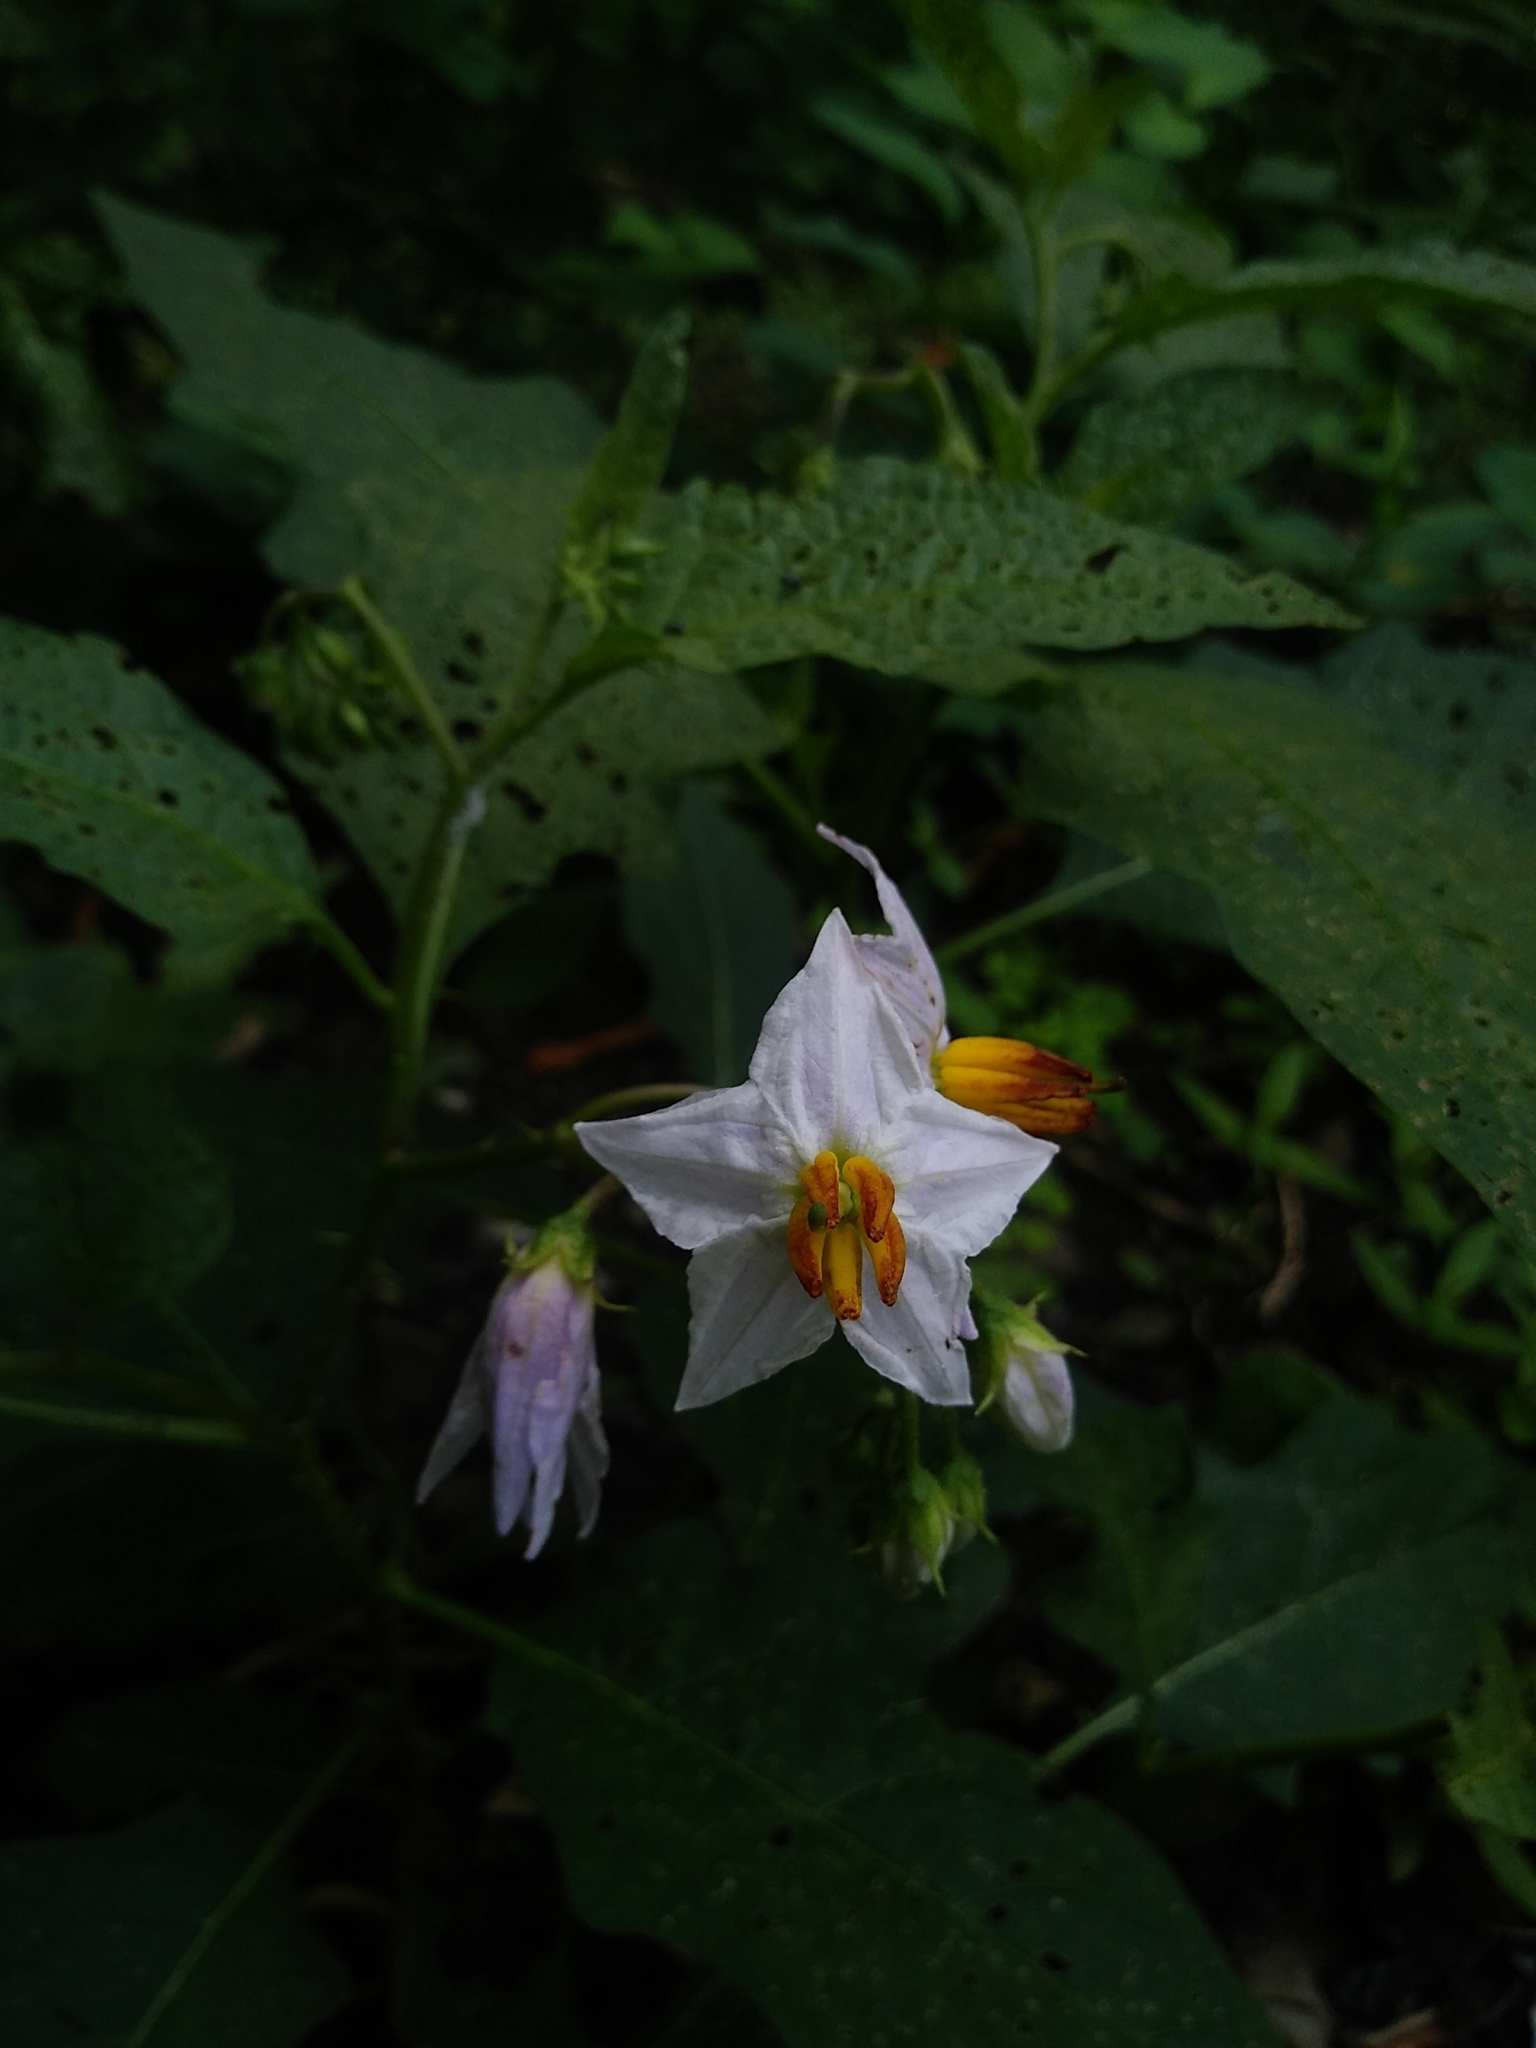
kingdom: Plantae
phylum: Tracheophyta
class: Magnoliopsida
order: Solanales
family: Solanaceae
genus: Solanum
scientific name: Solanum carolinense
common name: Horse-nettle
